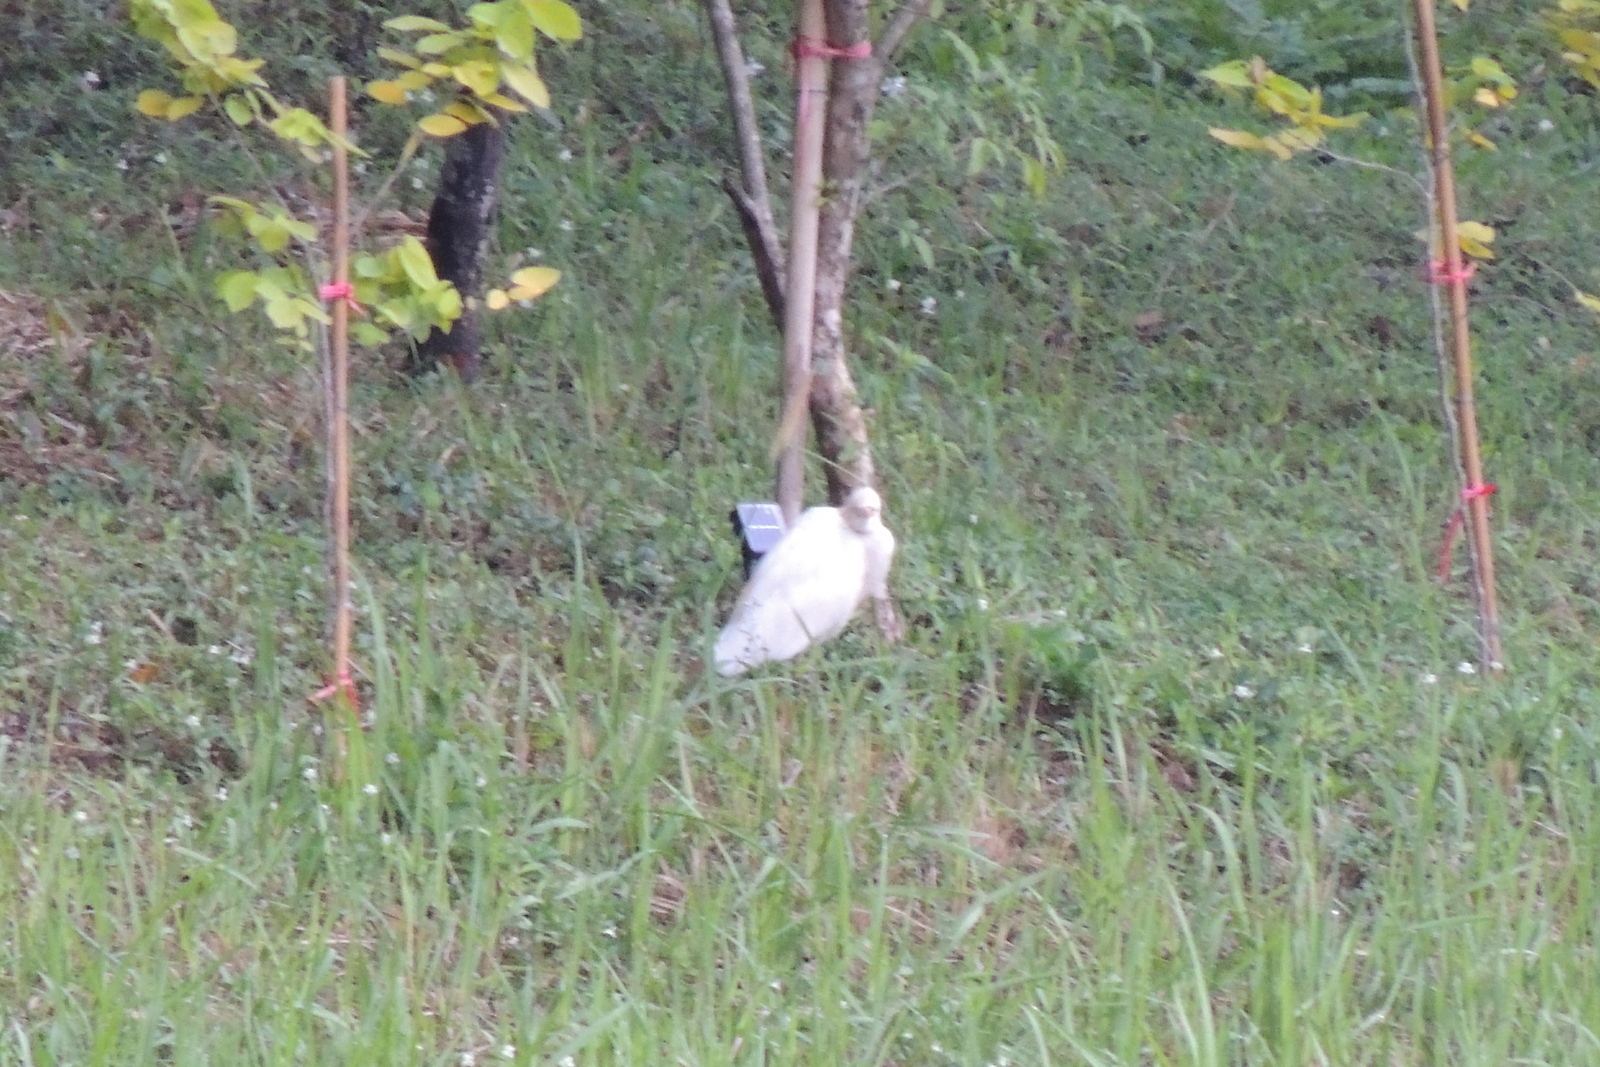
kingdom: Animalia
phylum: Chordata
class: Aves
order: Pelecaniformes
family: Ardeidae
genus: Bubulcus
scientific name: Bubulcus coromandus
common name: Eastern cattle egret
